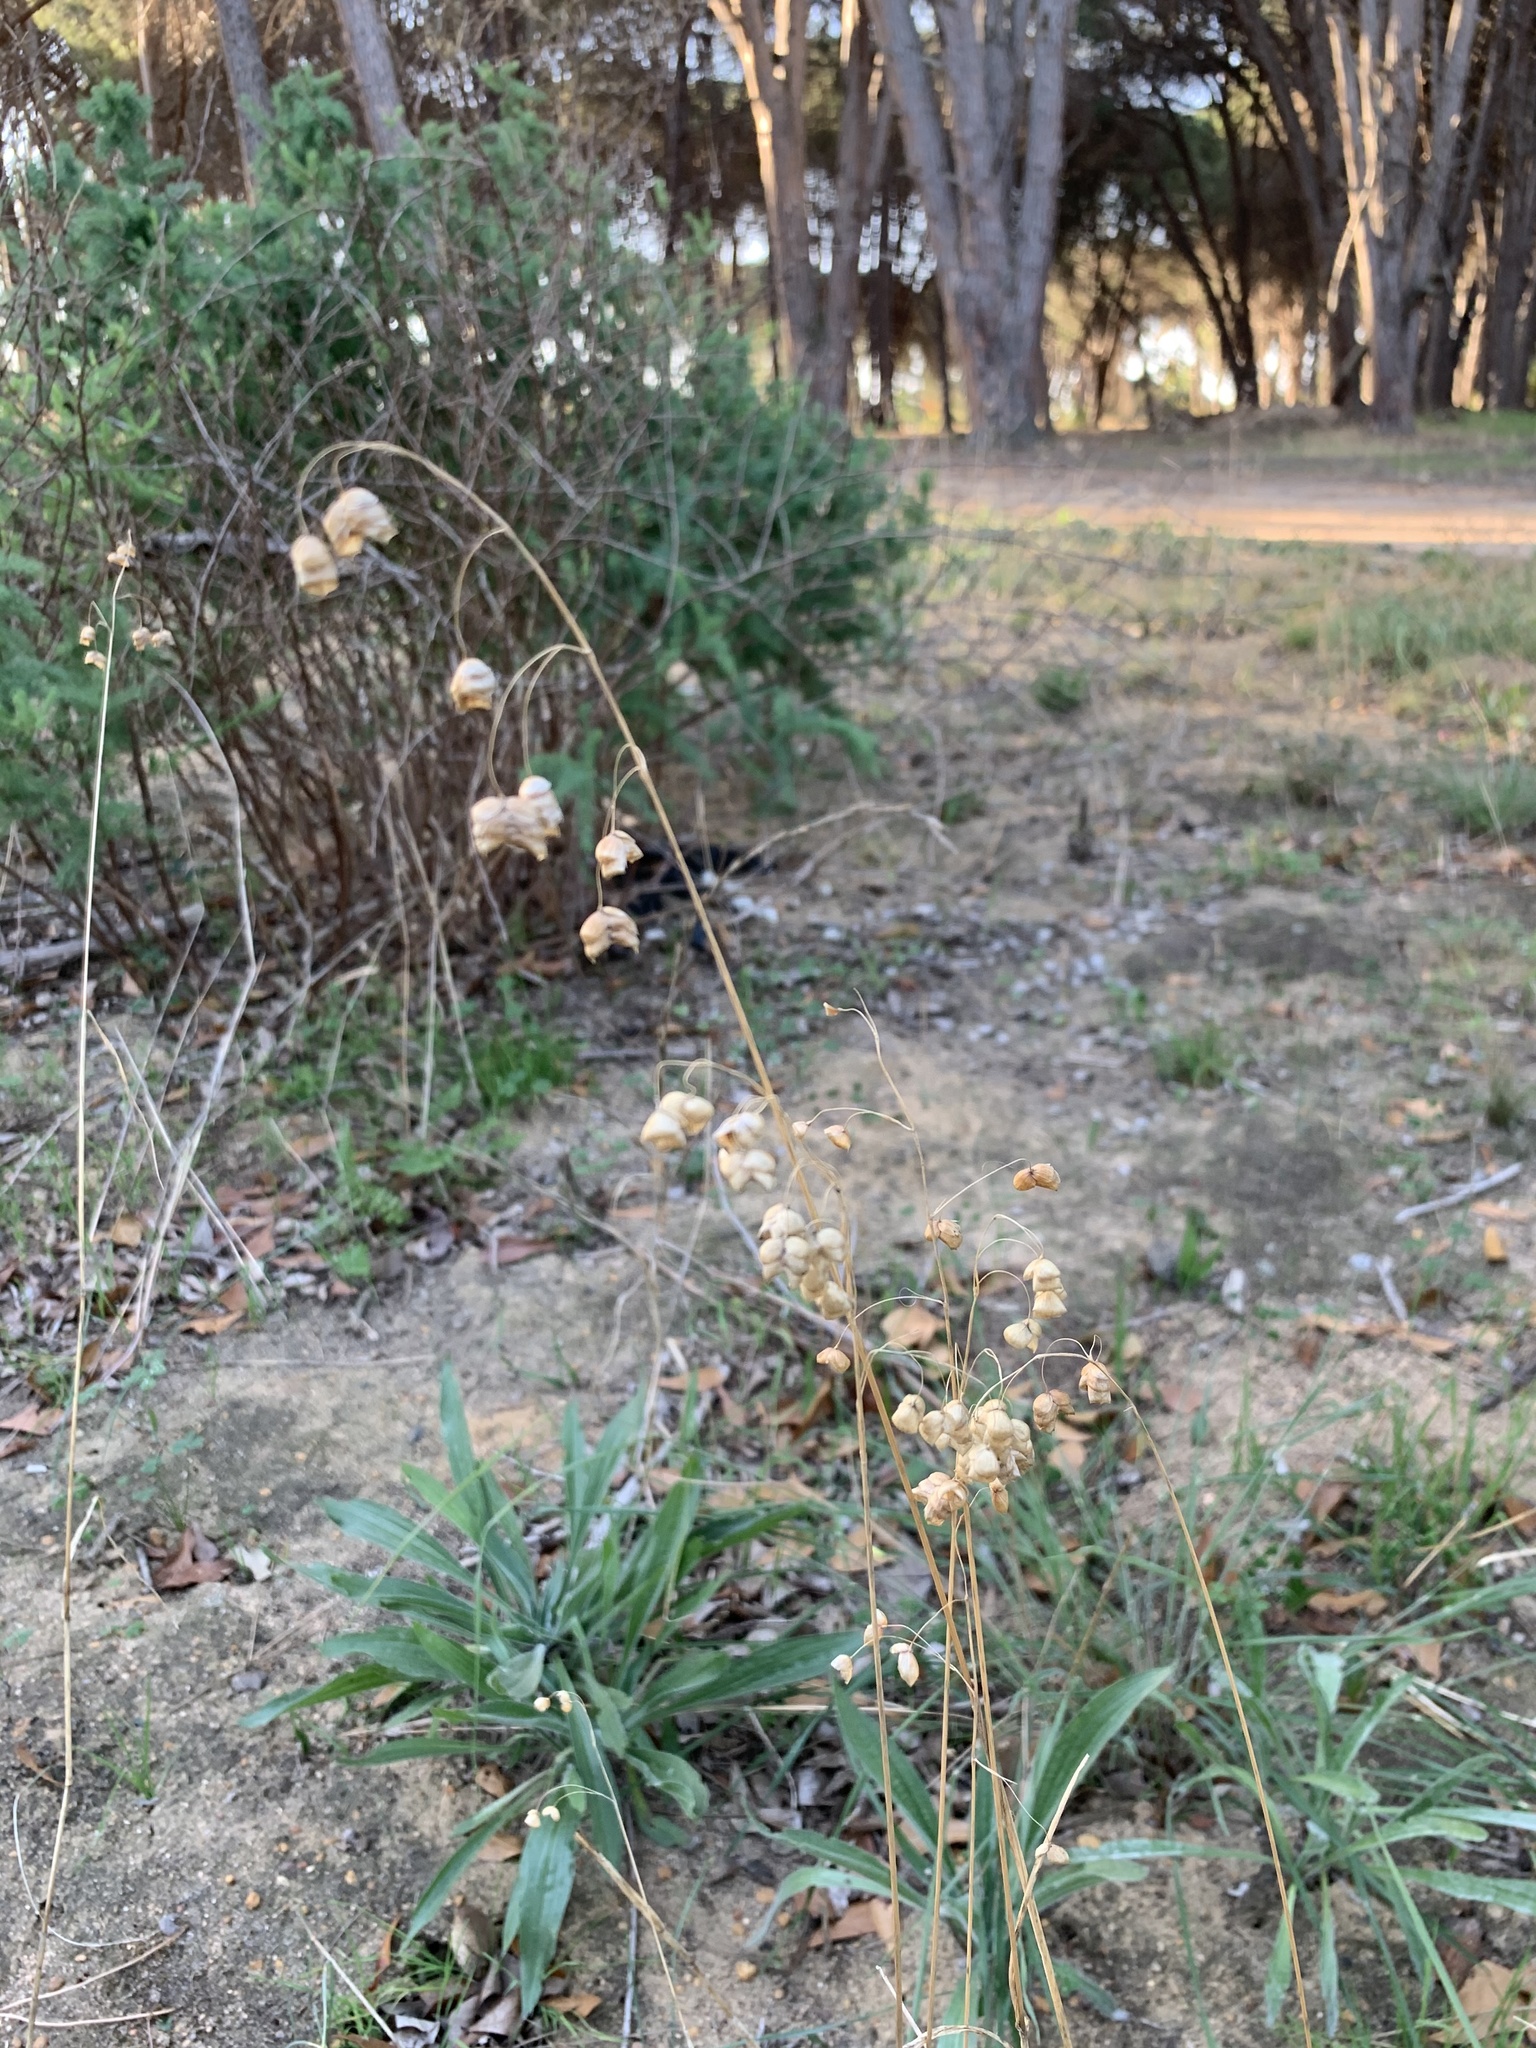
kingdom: Plantae
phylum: Tracheophyta
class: Liliopsida
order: Poales
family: Poaceae
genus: Briza
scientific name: Briza maxima
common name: Big quakinggrass
